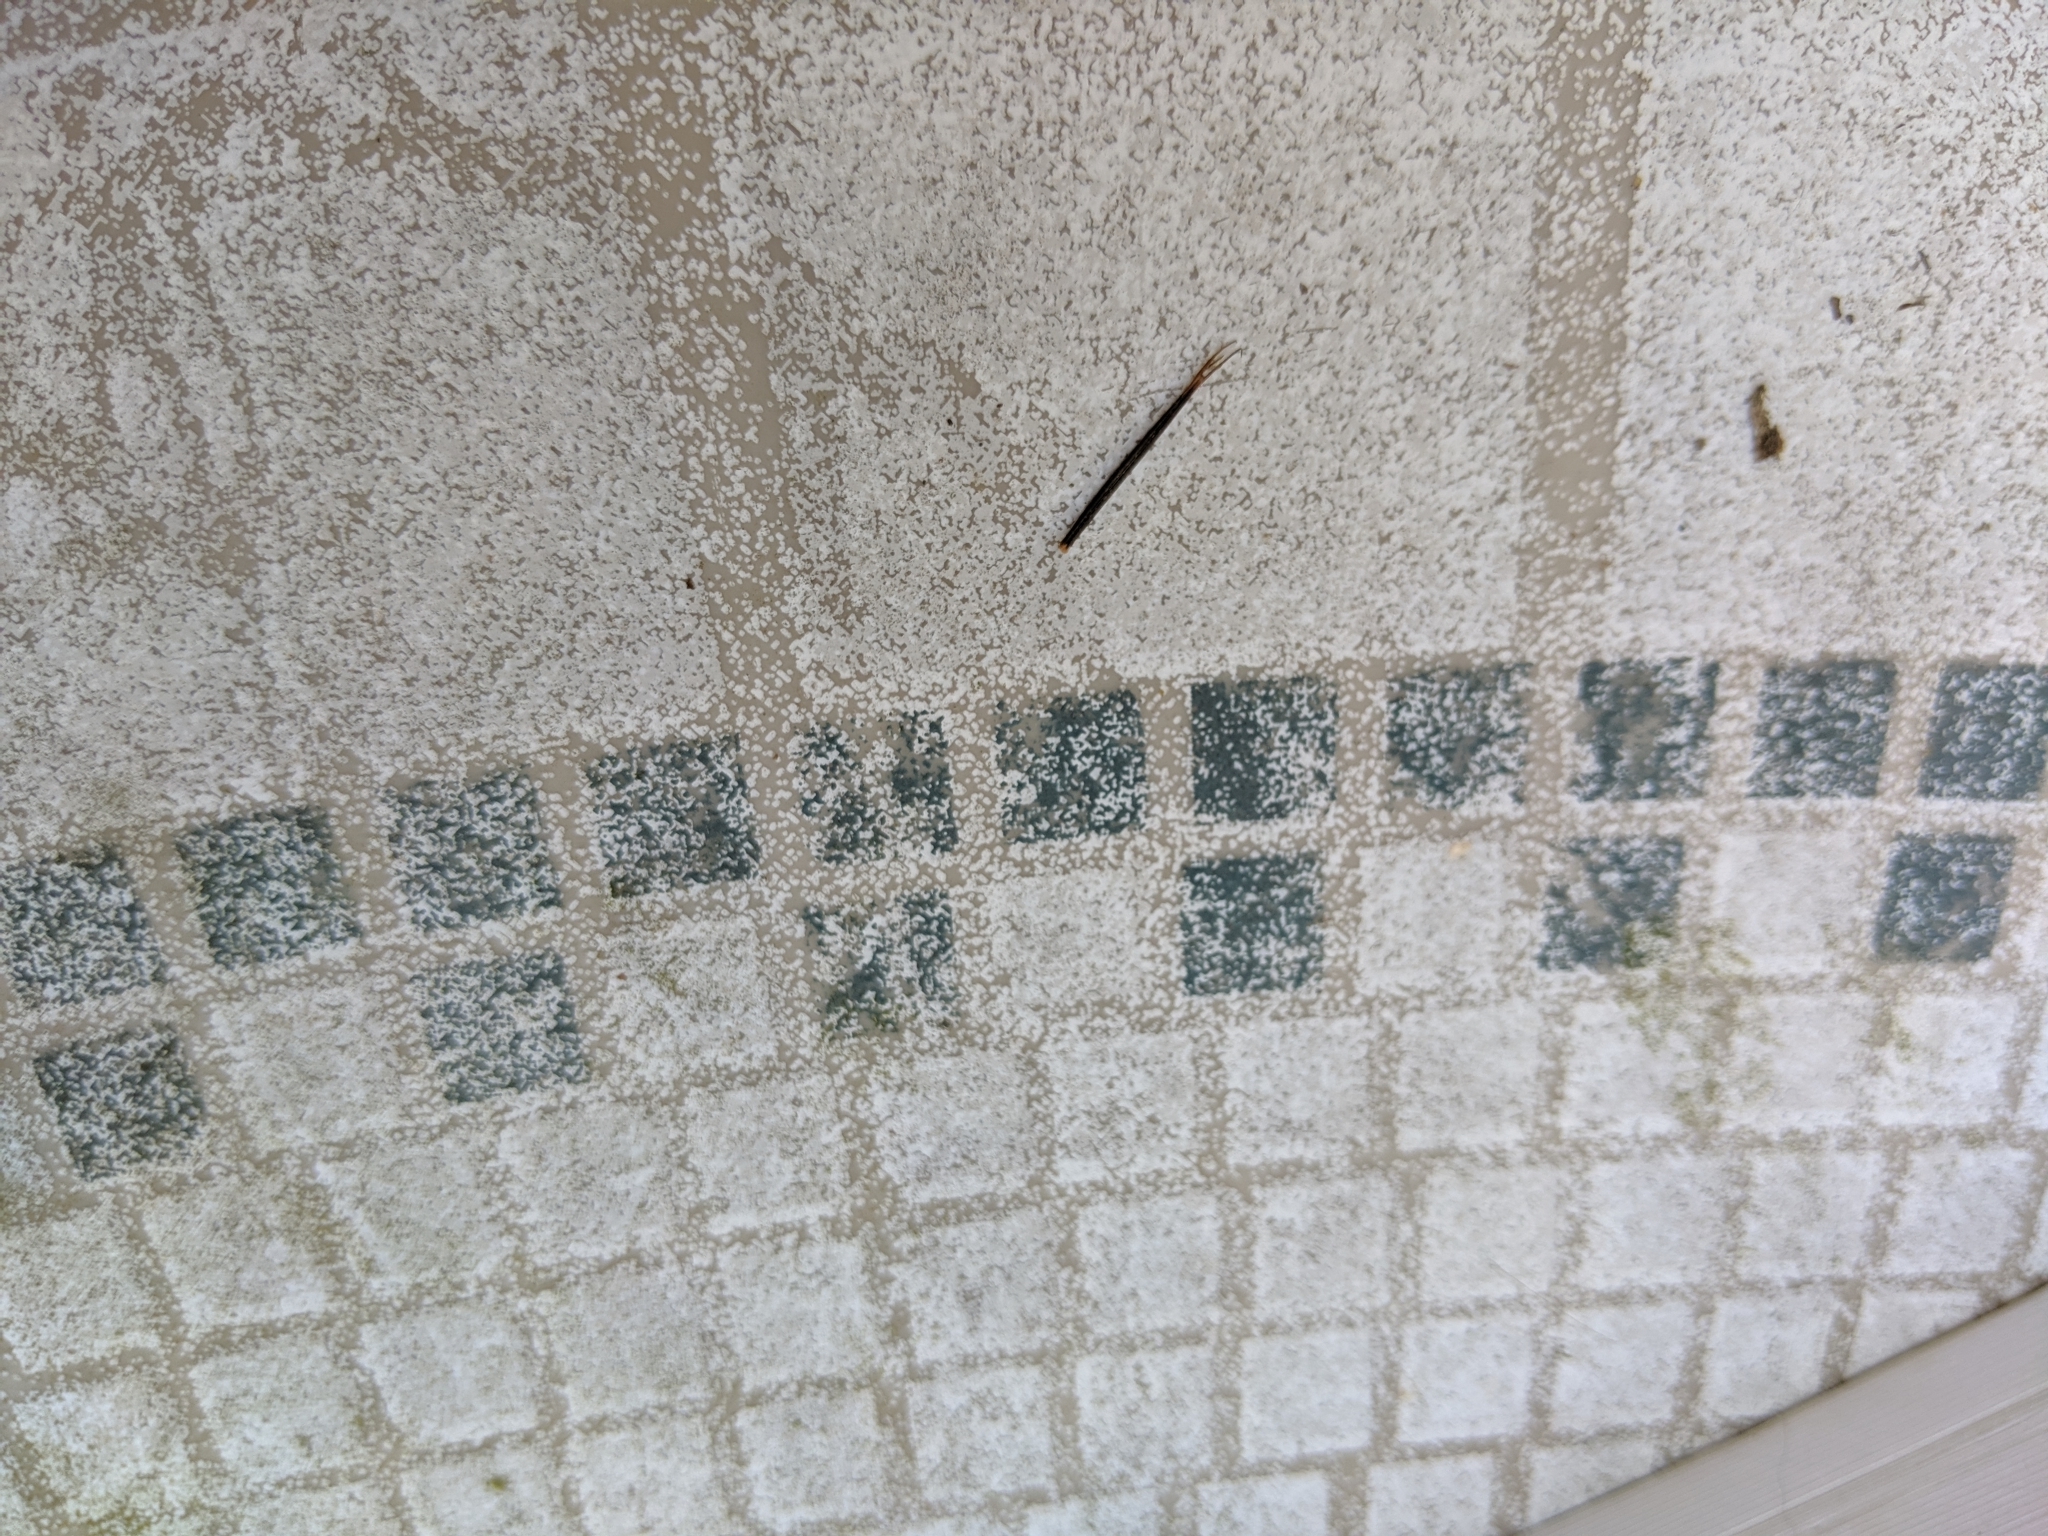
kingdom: Plantae
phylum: Tracheophyta
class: Magnoliopsida
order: Asterales
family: Asteraceae
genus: Bidens
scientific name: Bidens bipinnata
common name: Spanish-needles
